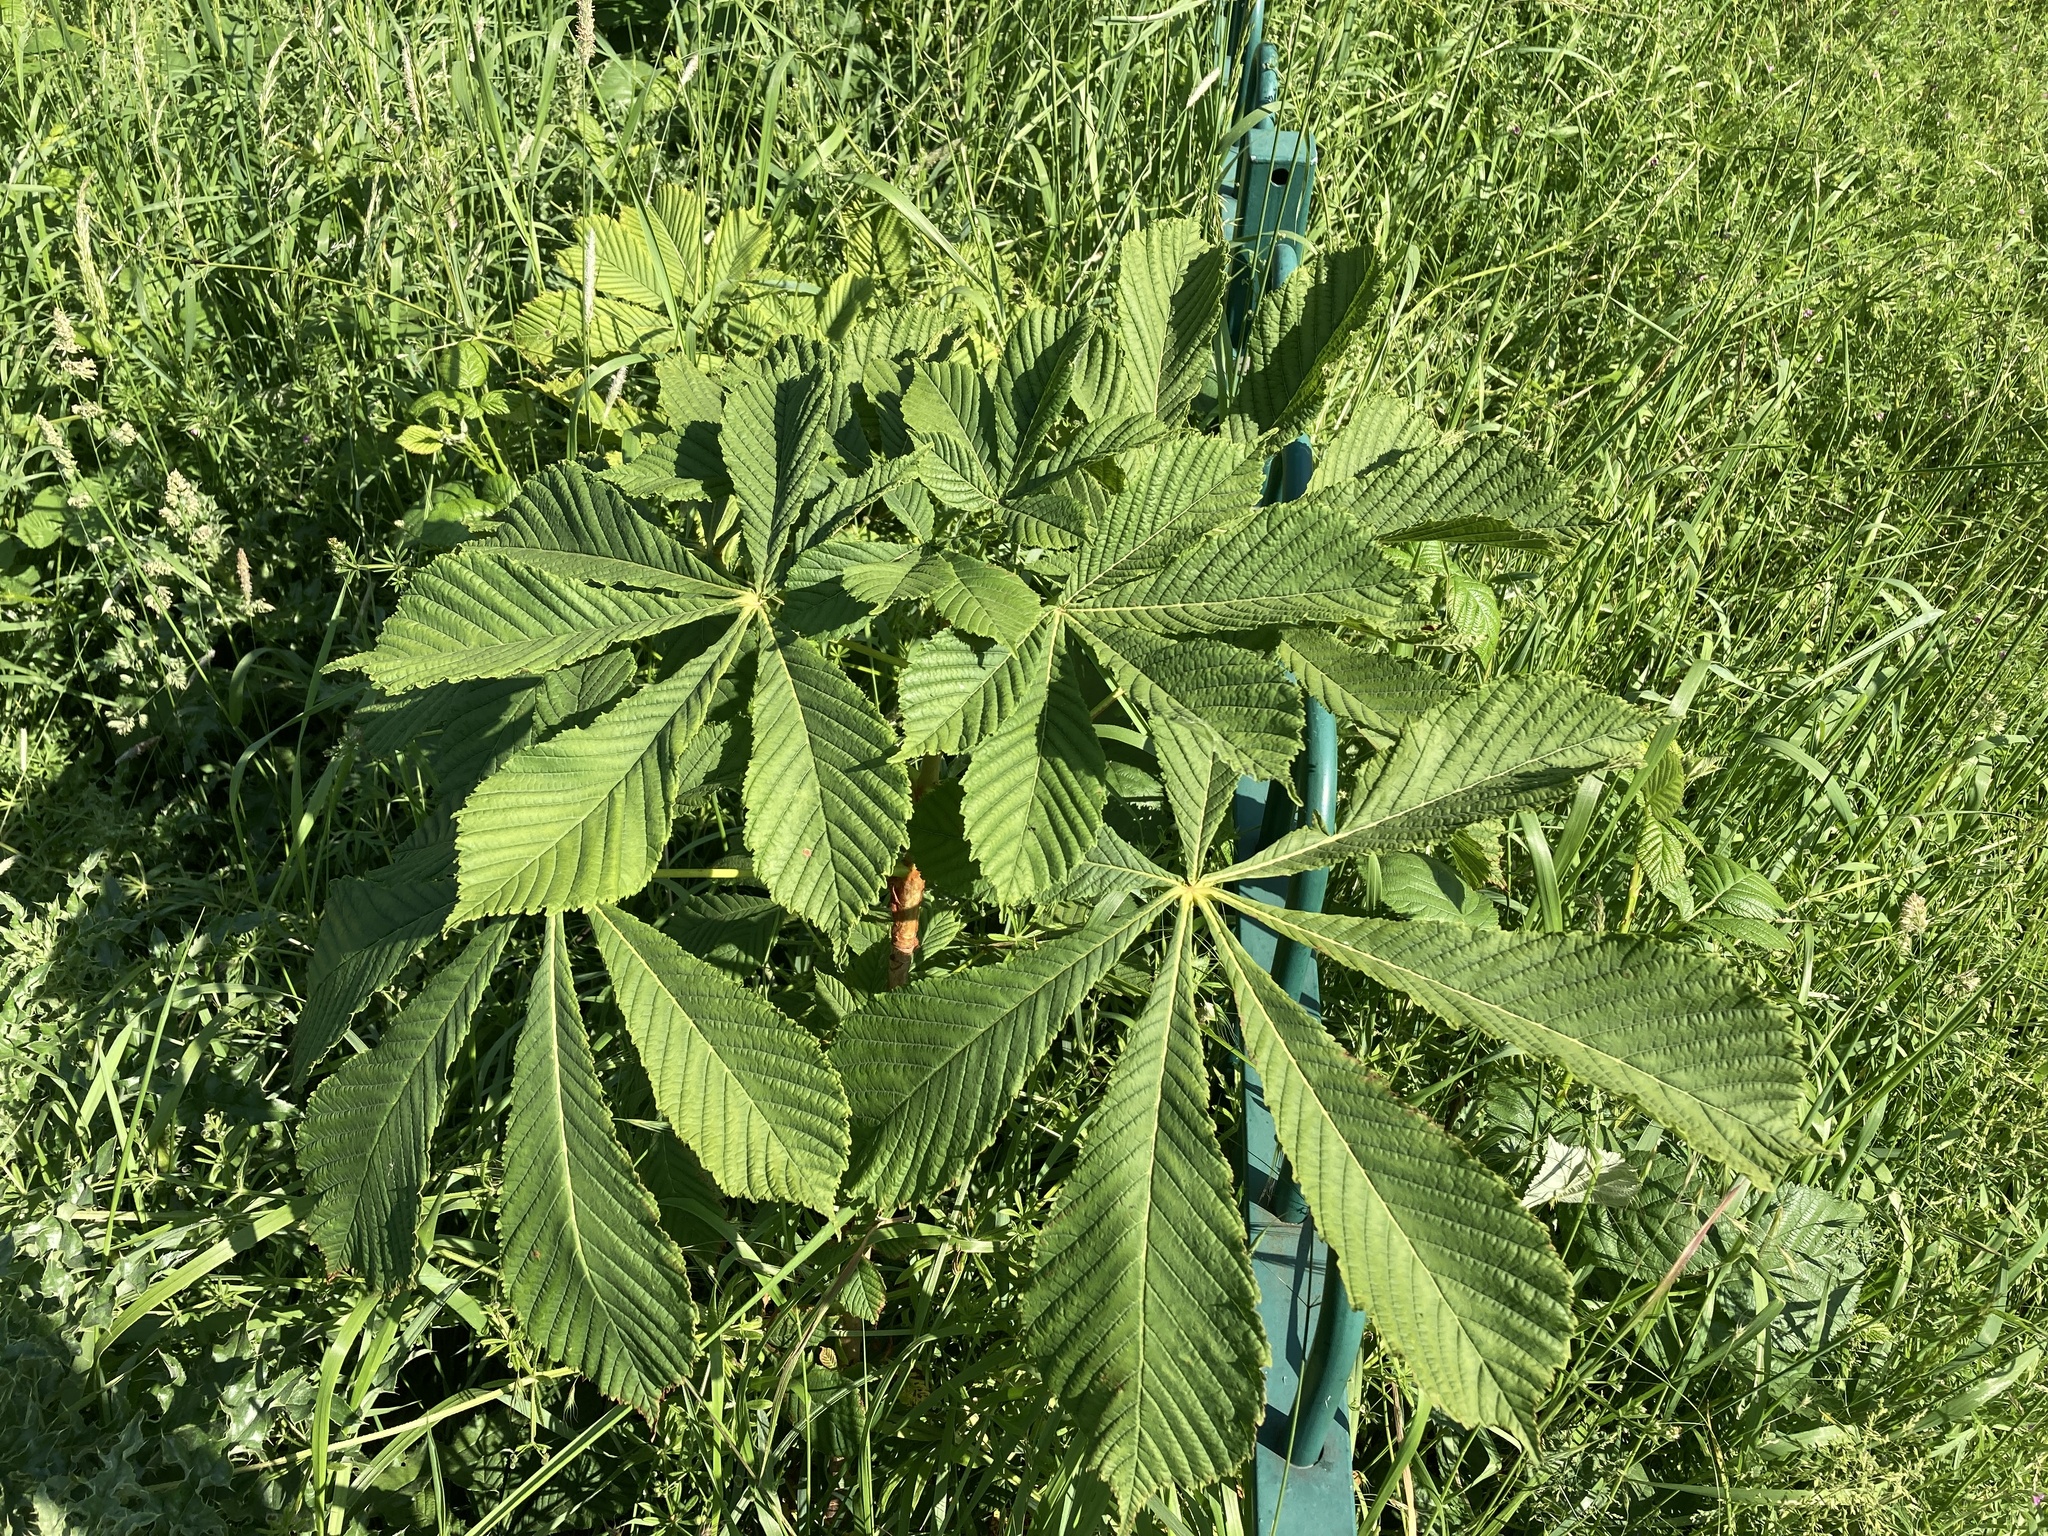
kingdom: Plantae
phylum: Tracheophyta
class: Magnoliopsida
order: Sapindales
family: Sapindaceae
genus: Aesculus
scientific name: Aesculus hippocastanum
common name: Horse-chestnut
